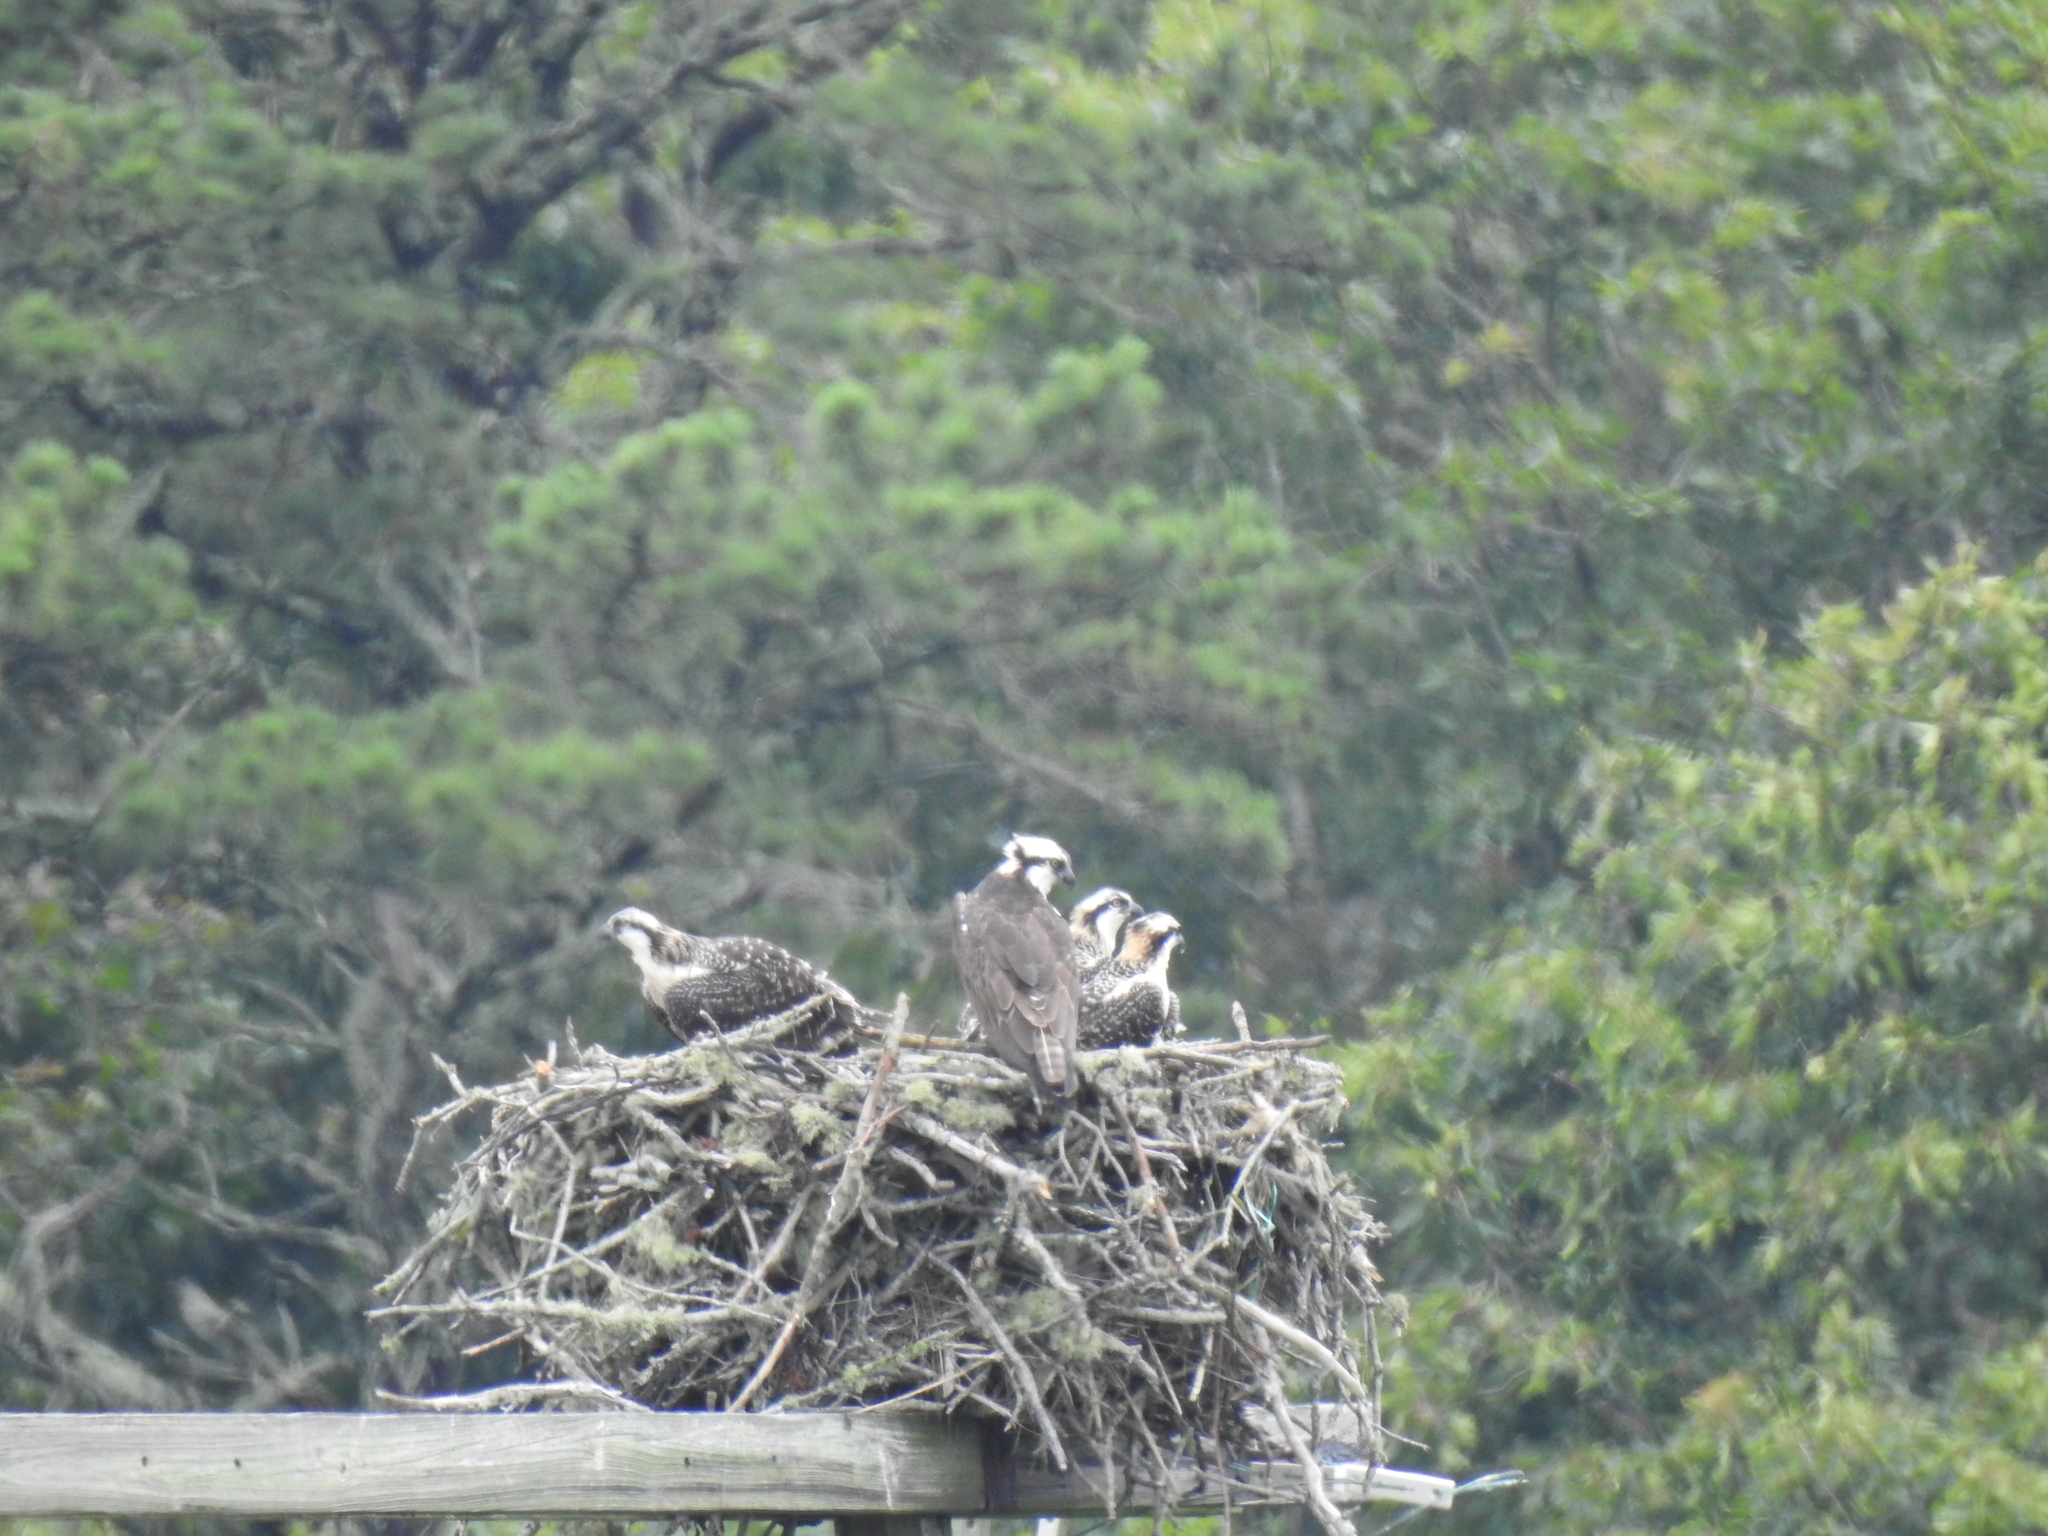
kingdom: Animalia
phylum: Chordata
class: Aves
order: Accipitriformes
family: Pandionidae
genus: Pandion
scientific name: Pandion haliaetus
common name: Osprey
